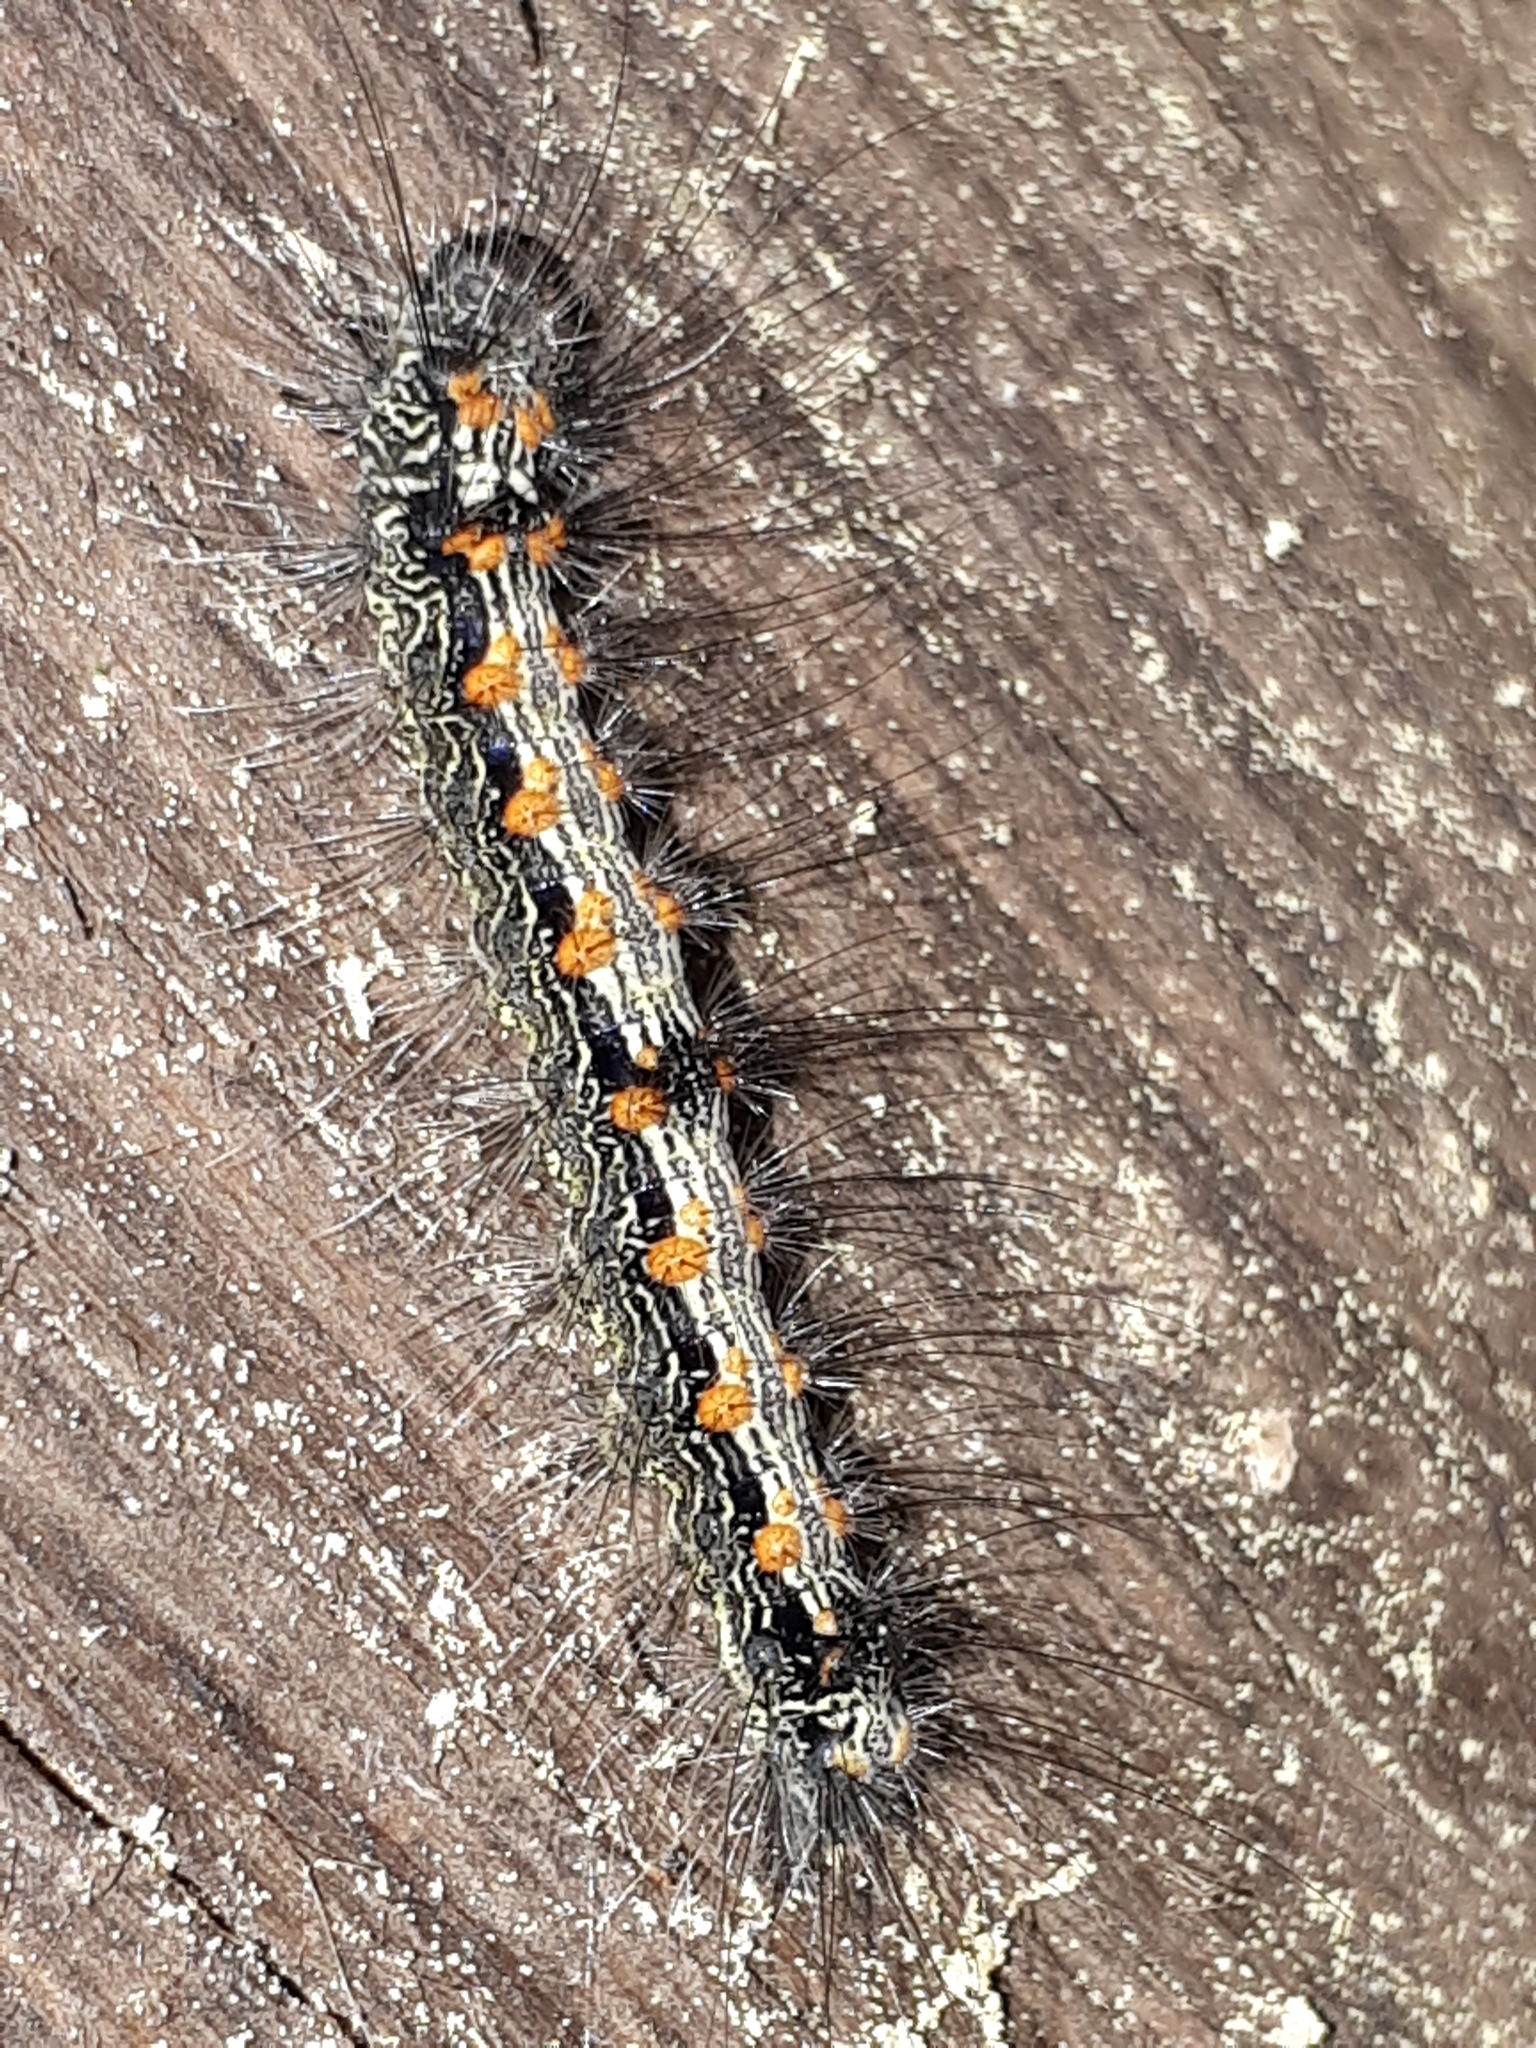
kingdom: Animalia
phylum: Arthropoda
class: Insecta
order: Lepidoptera
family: Erebidae
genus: Lithosia
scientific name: Lithosia quadra
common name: Four-spotted footman
